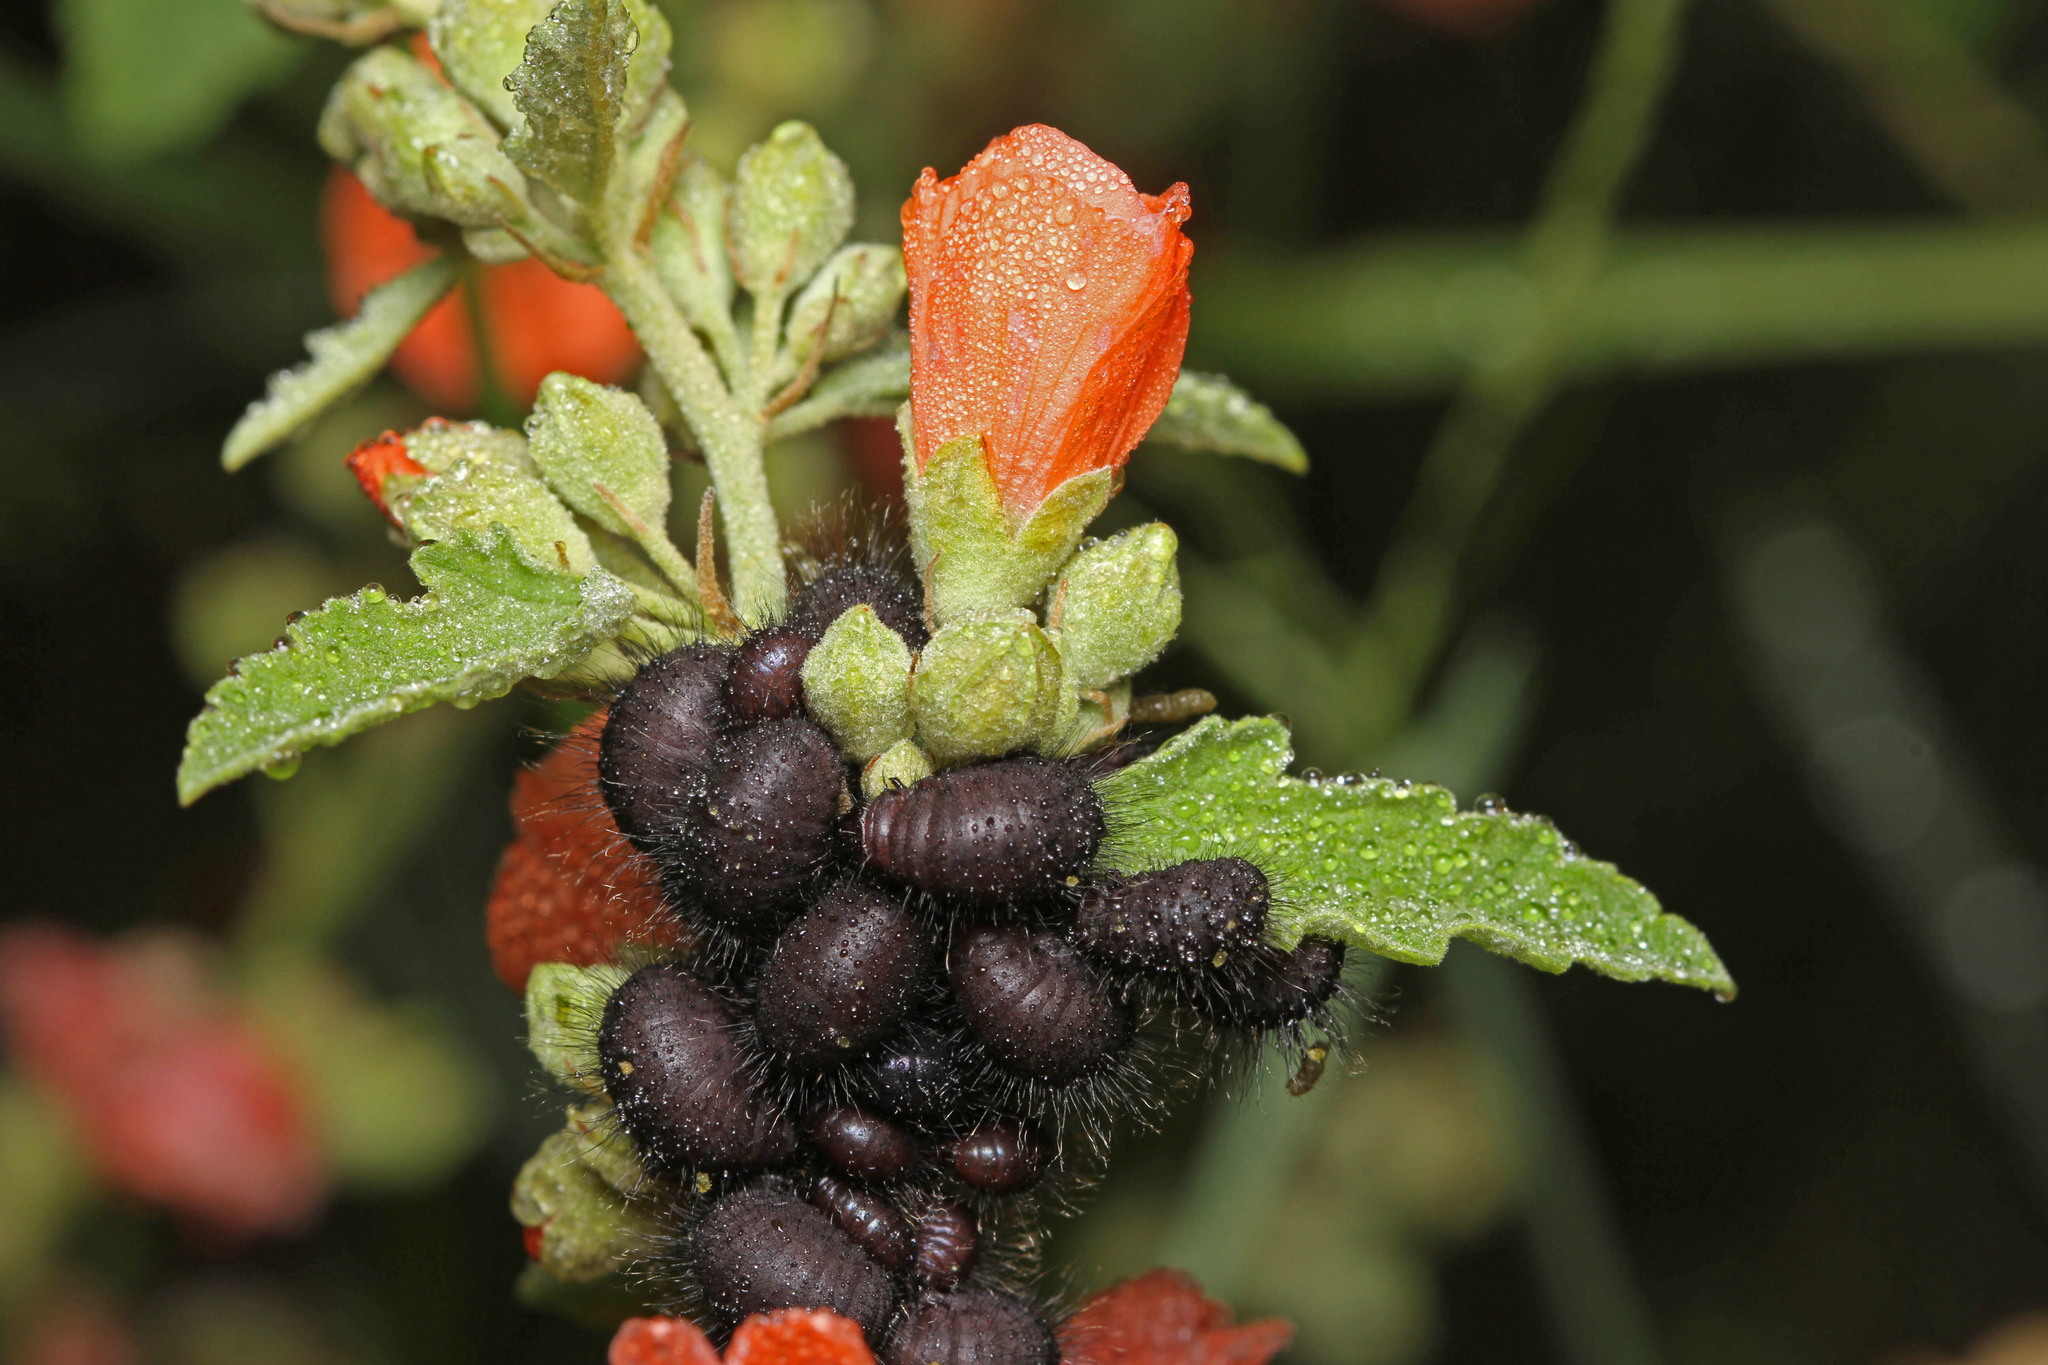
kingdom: Animalia
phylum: Arthropoda
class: Insecta
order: Coleoptera
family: Chrysomelidae
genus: Calligrapha
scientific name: Calligrapha serpentina
